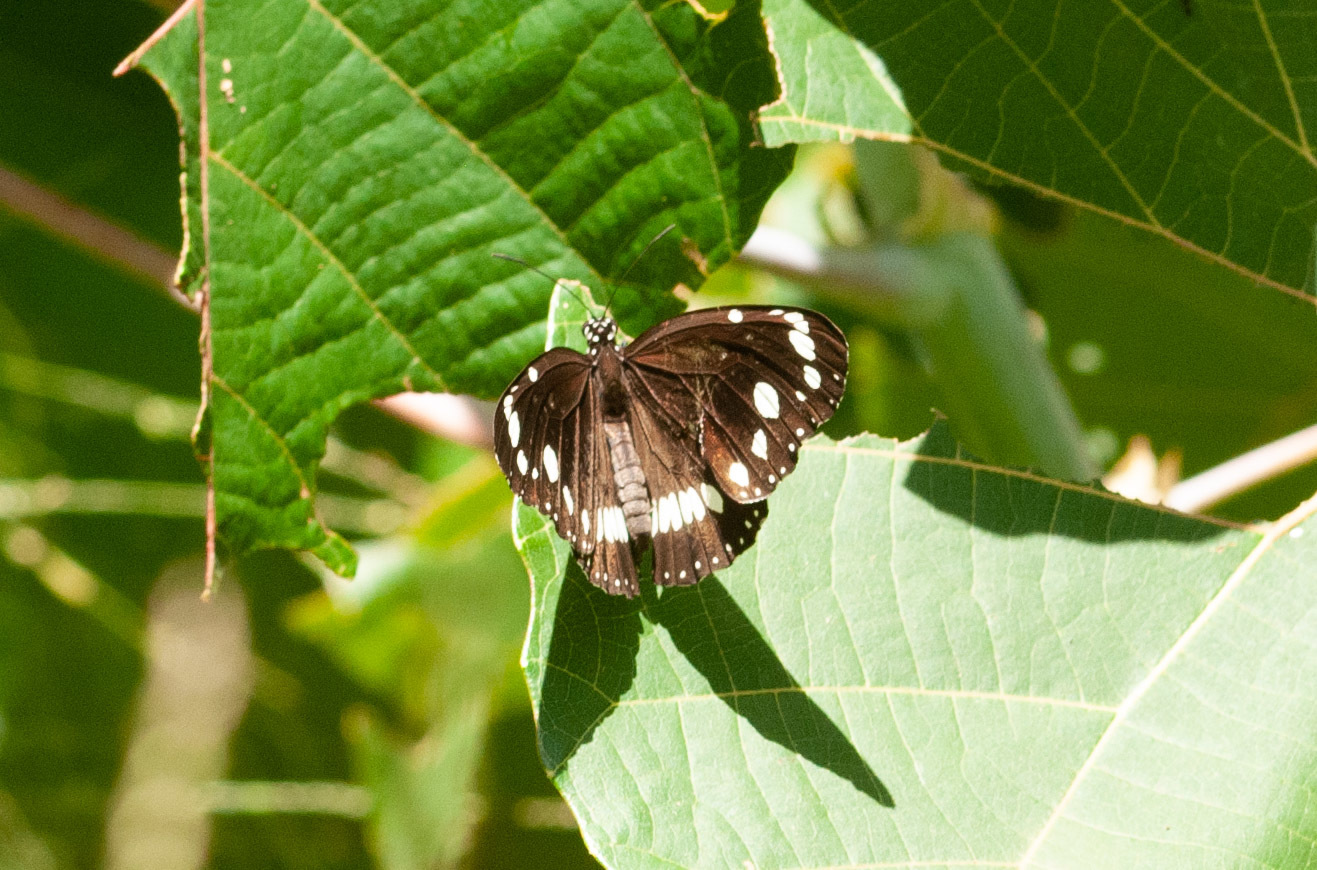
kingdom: Animalia
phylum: Arthropoda
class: Insecta
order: Lepidoptera
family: Nymphalidae
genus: Euploea
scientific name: Euploea core
